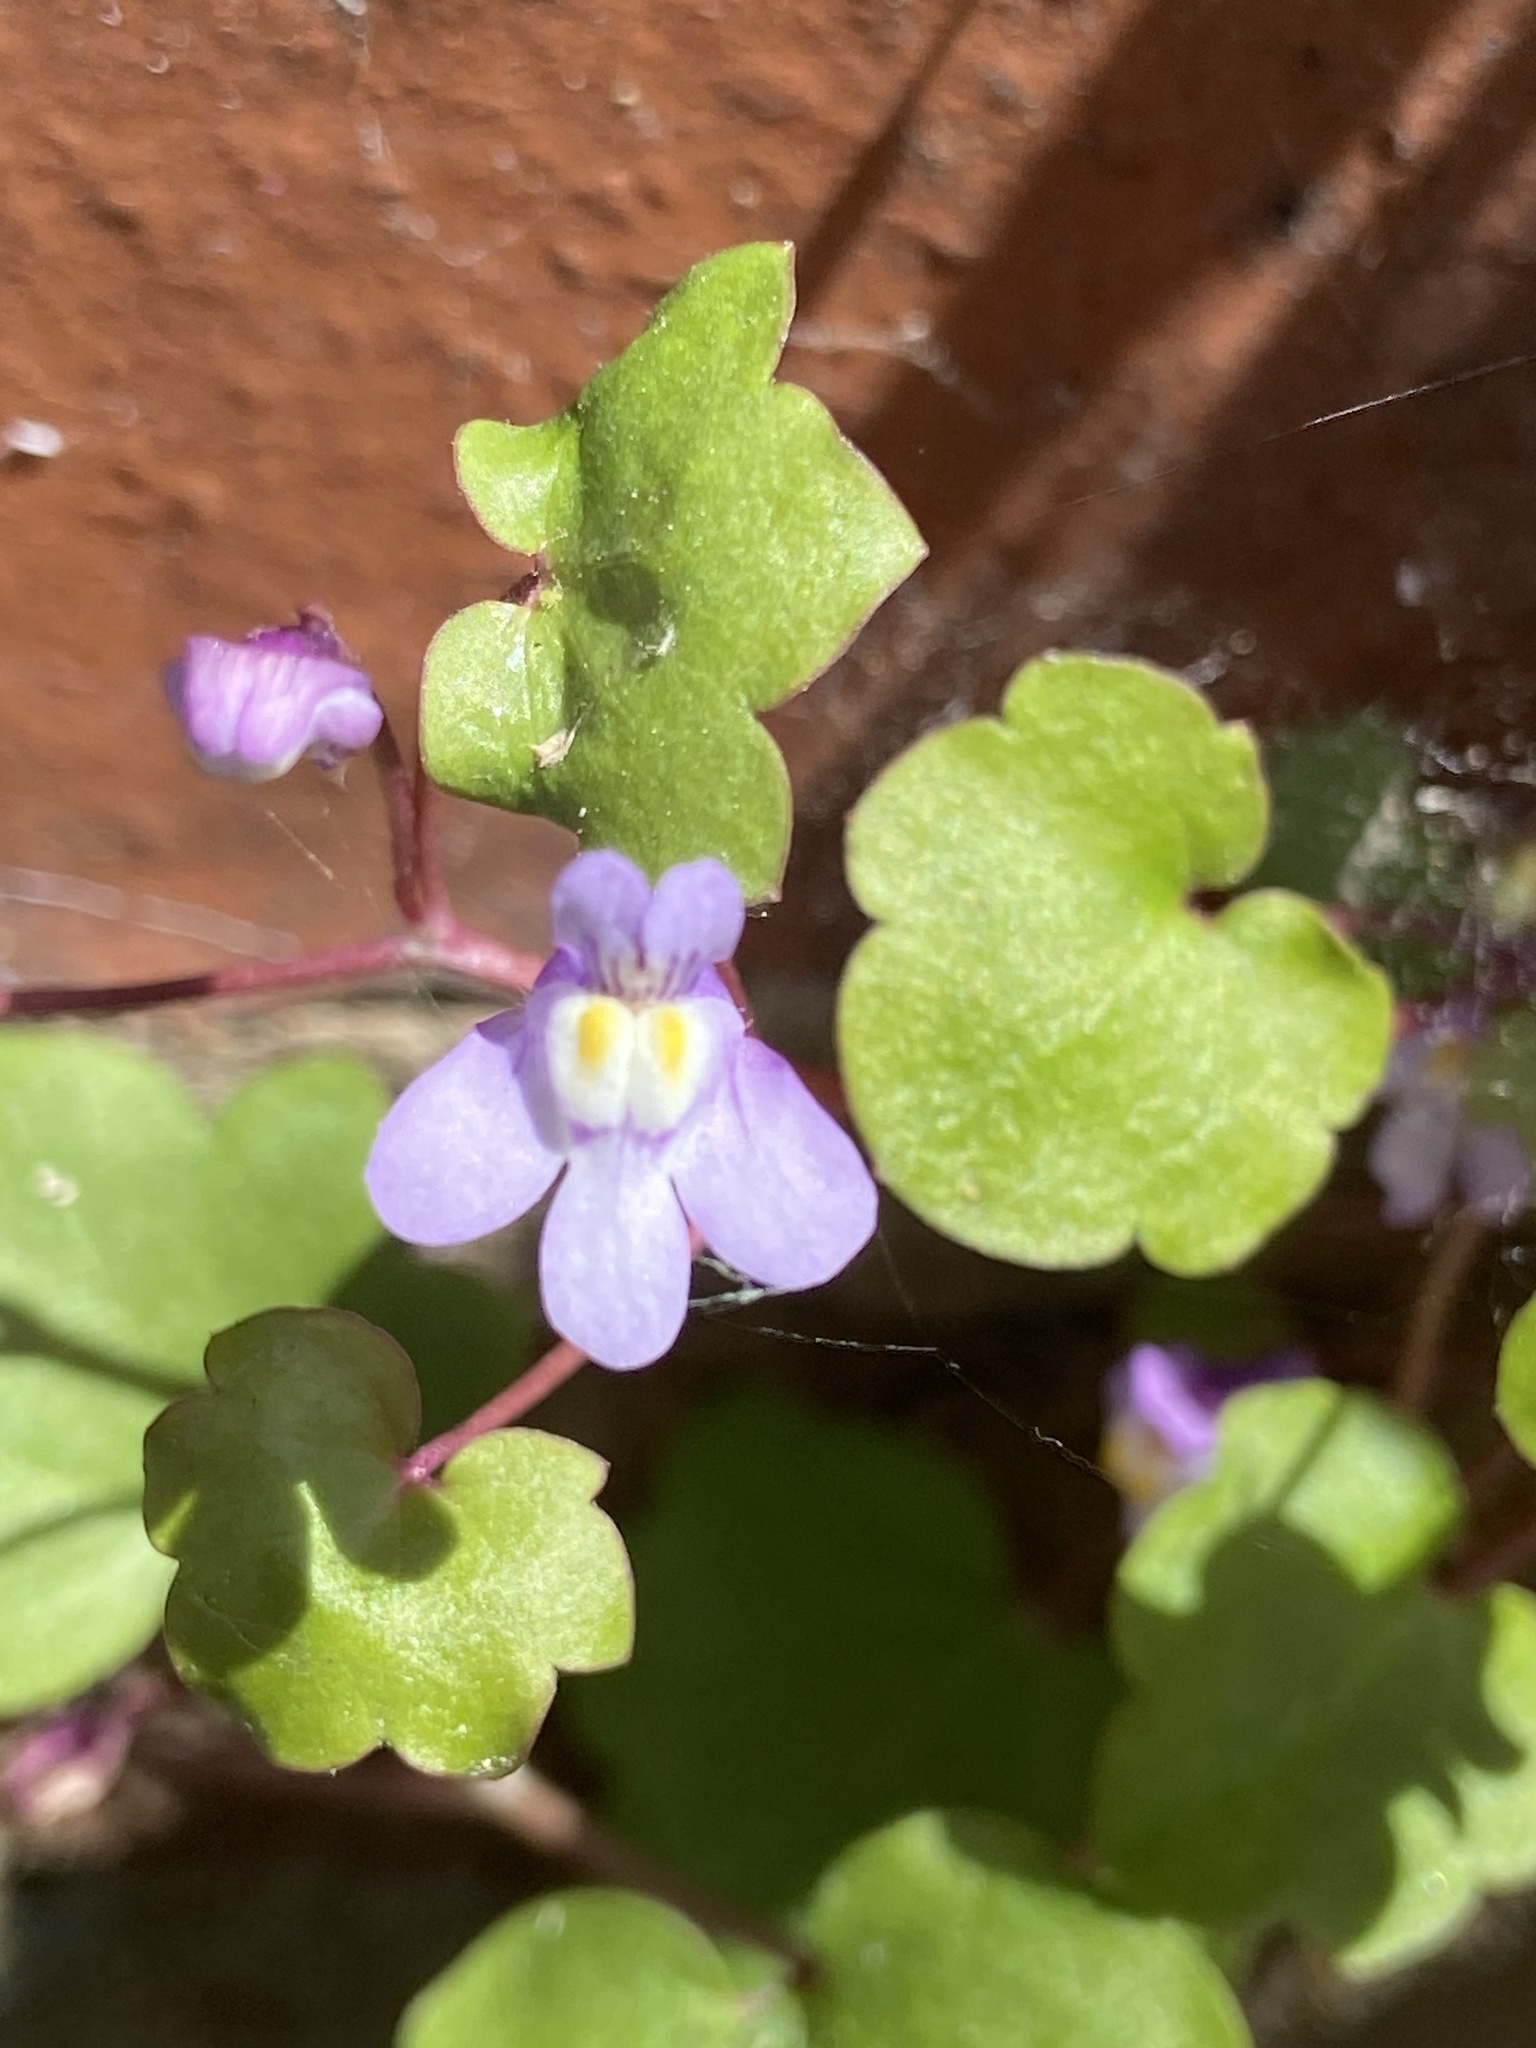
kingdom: Plantae
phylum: Tracheophyta
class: Magnoliopsida
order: Lamiales
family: Plantaginaceae
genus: Cymbalaria
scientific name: Cymbalaria muralis
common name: Ivy-leaved toadflax
